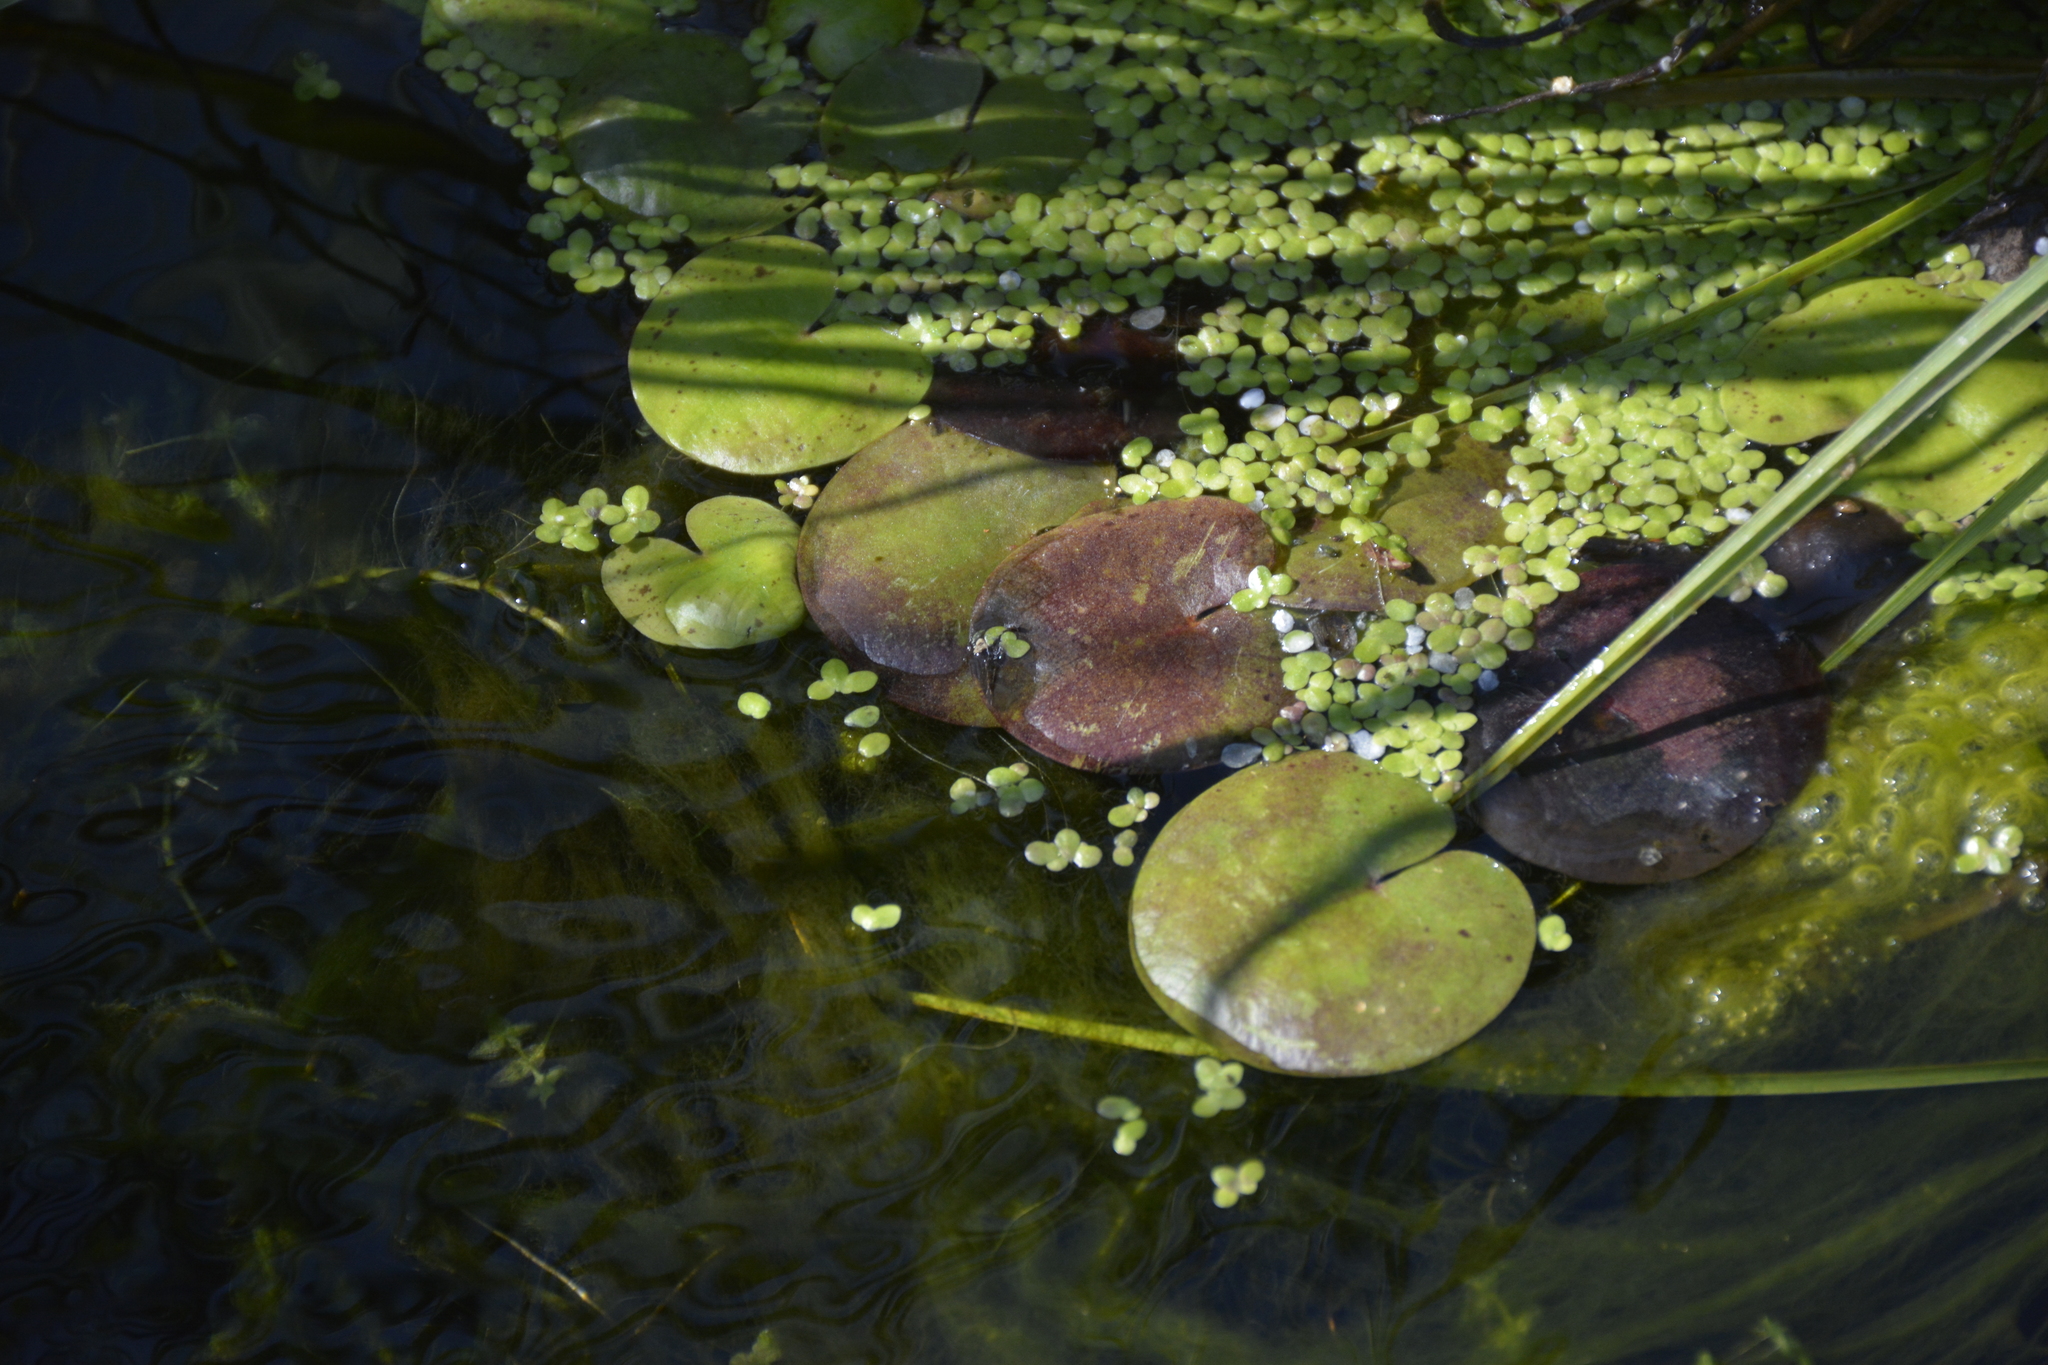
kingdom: Plantae
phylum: Tracheophyta
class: Liliopsida
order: Alismatales
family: Hydrocharitaceae
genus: Hydrocharis
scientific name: Hydrocharis morsus-ranae
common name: Frogbit
